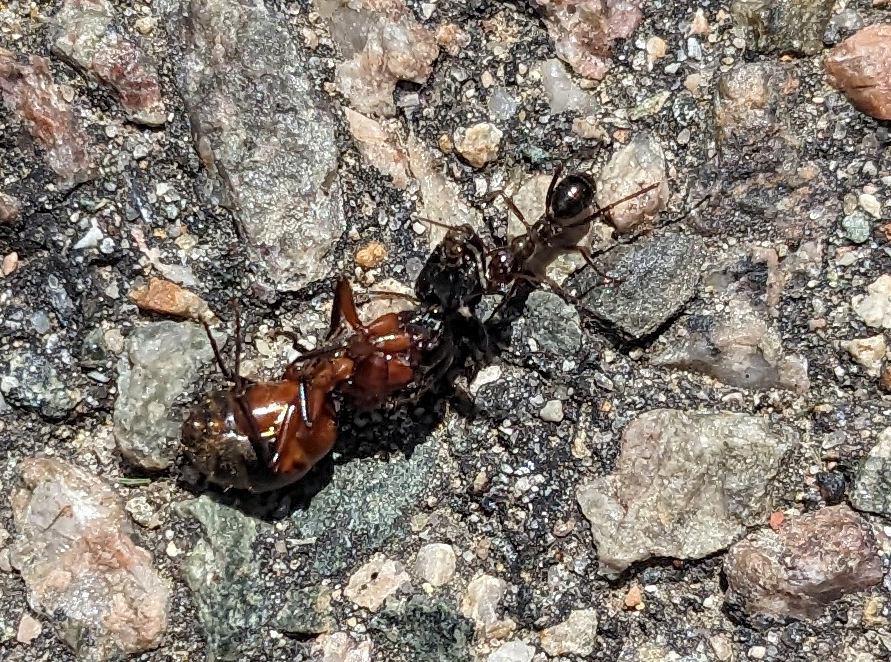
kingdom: Animalia
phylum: Arthropoda
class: Insecta
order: Hymenoptera
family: Formicidae
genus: Formica
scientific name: Formica pallidefulva
